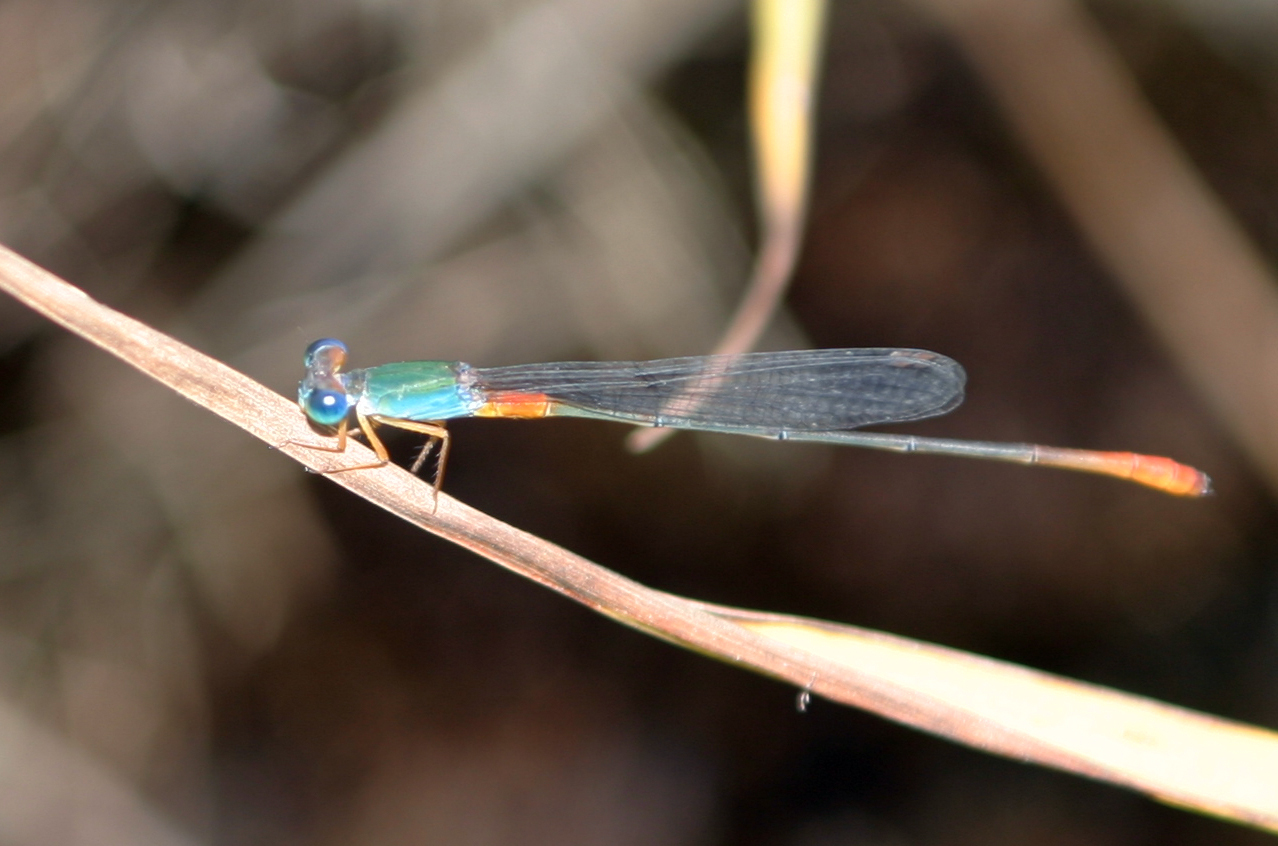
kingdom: Animalia
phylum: Arthropoda
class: Insecta
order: Odonata
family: Coenagrionidae
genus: Ceriagrion
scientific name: Ceriagrion cerinorubellum
